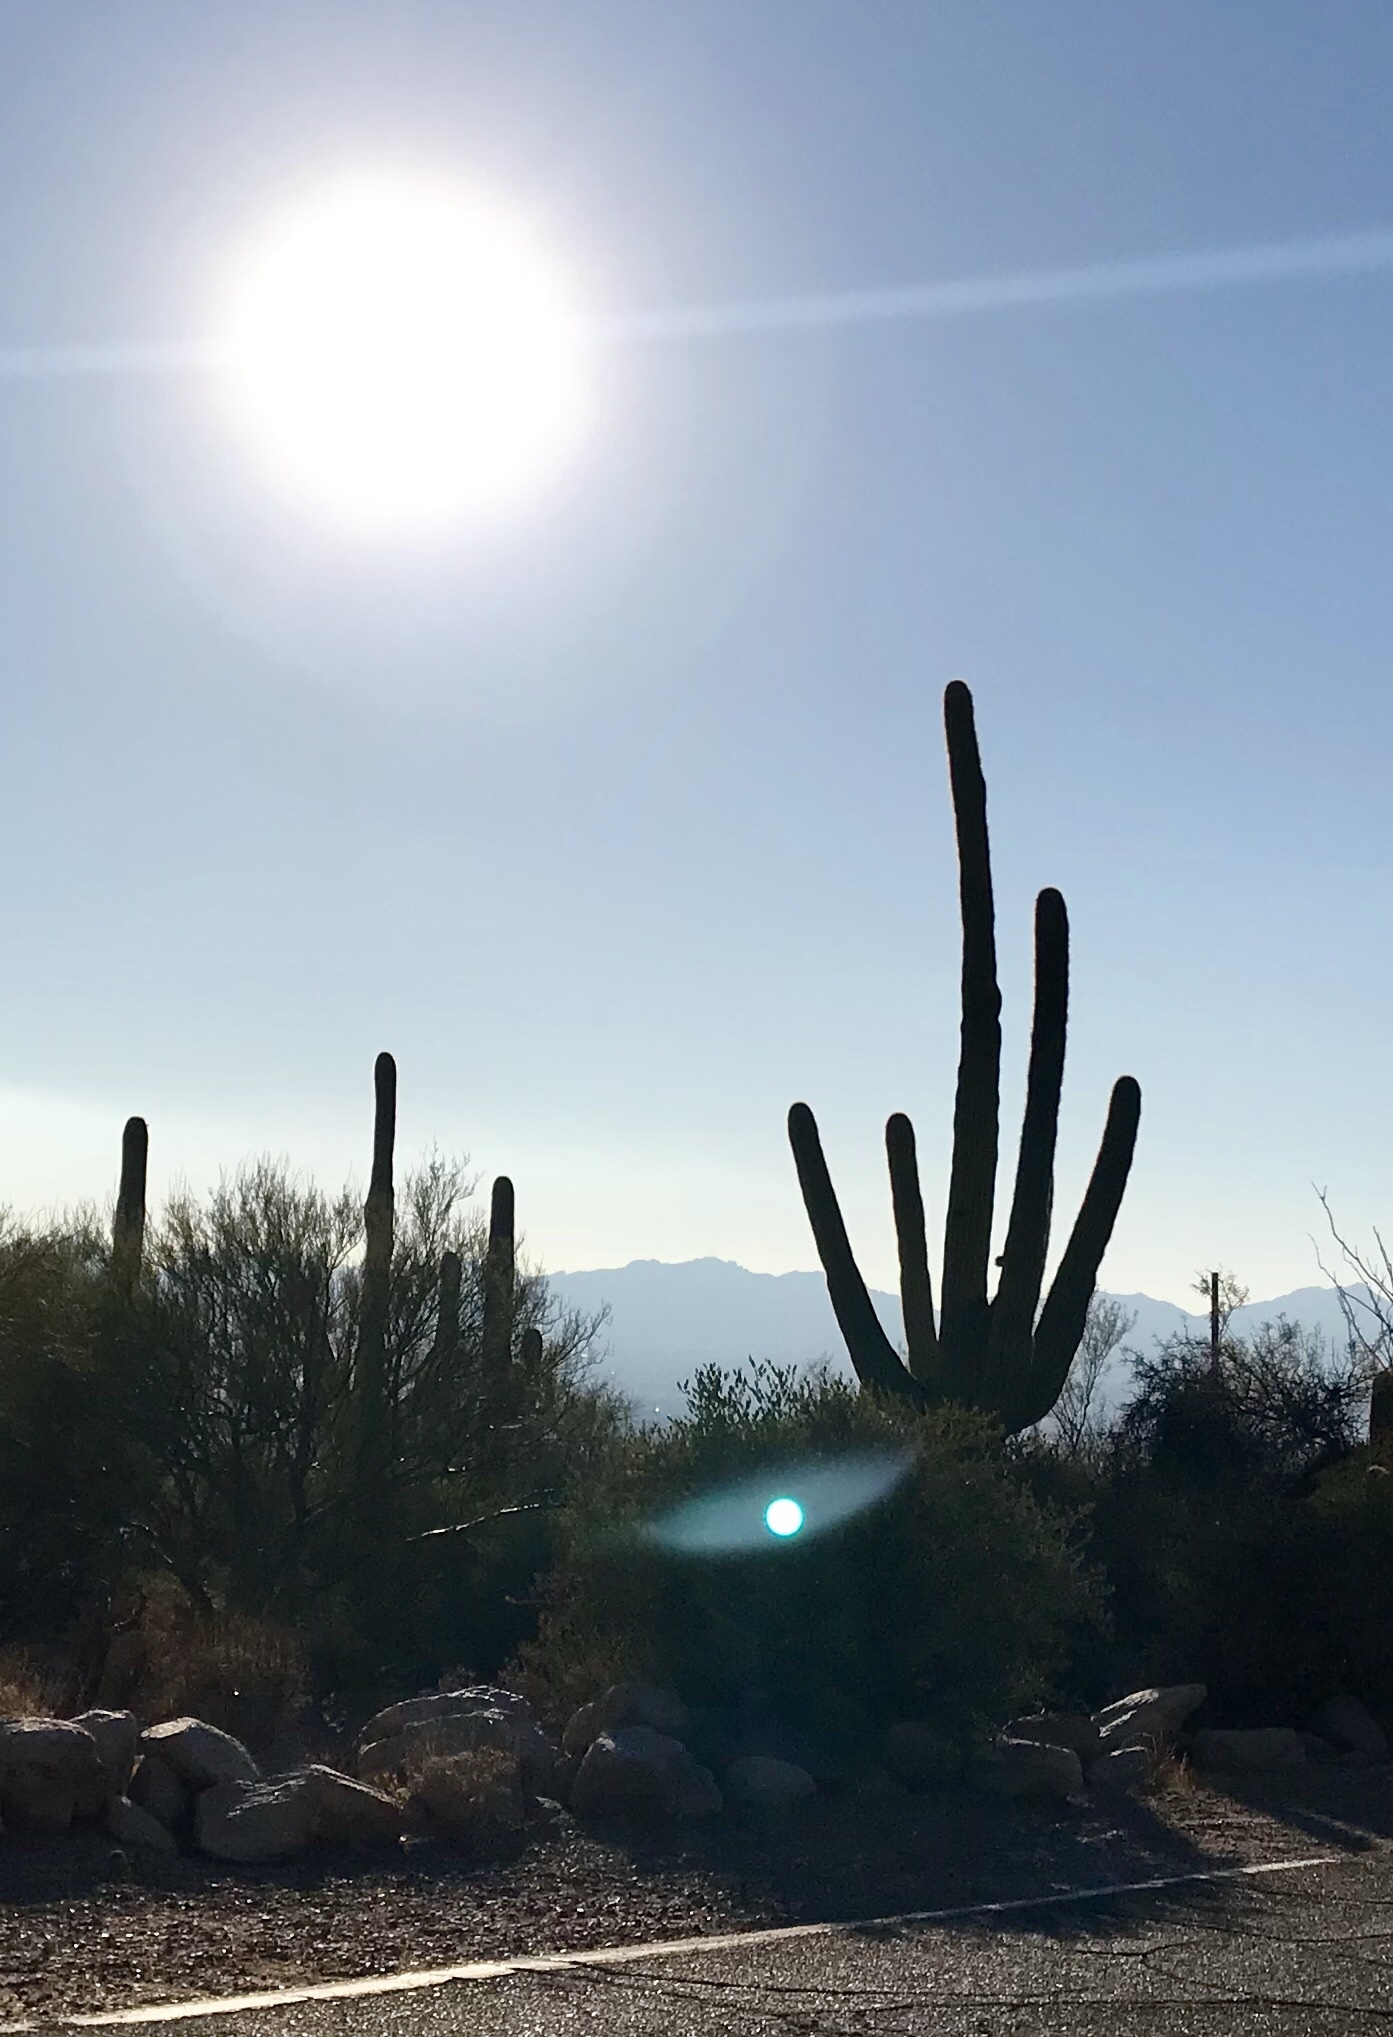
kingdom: Plantae
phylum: Tracheophyta
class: Magnoliopsida
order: Caryophyllales
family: Cactaceae
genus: Carnegiea
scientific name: Carnegiea gigantea
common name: Saguaro
